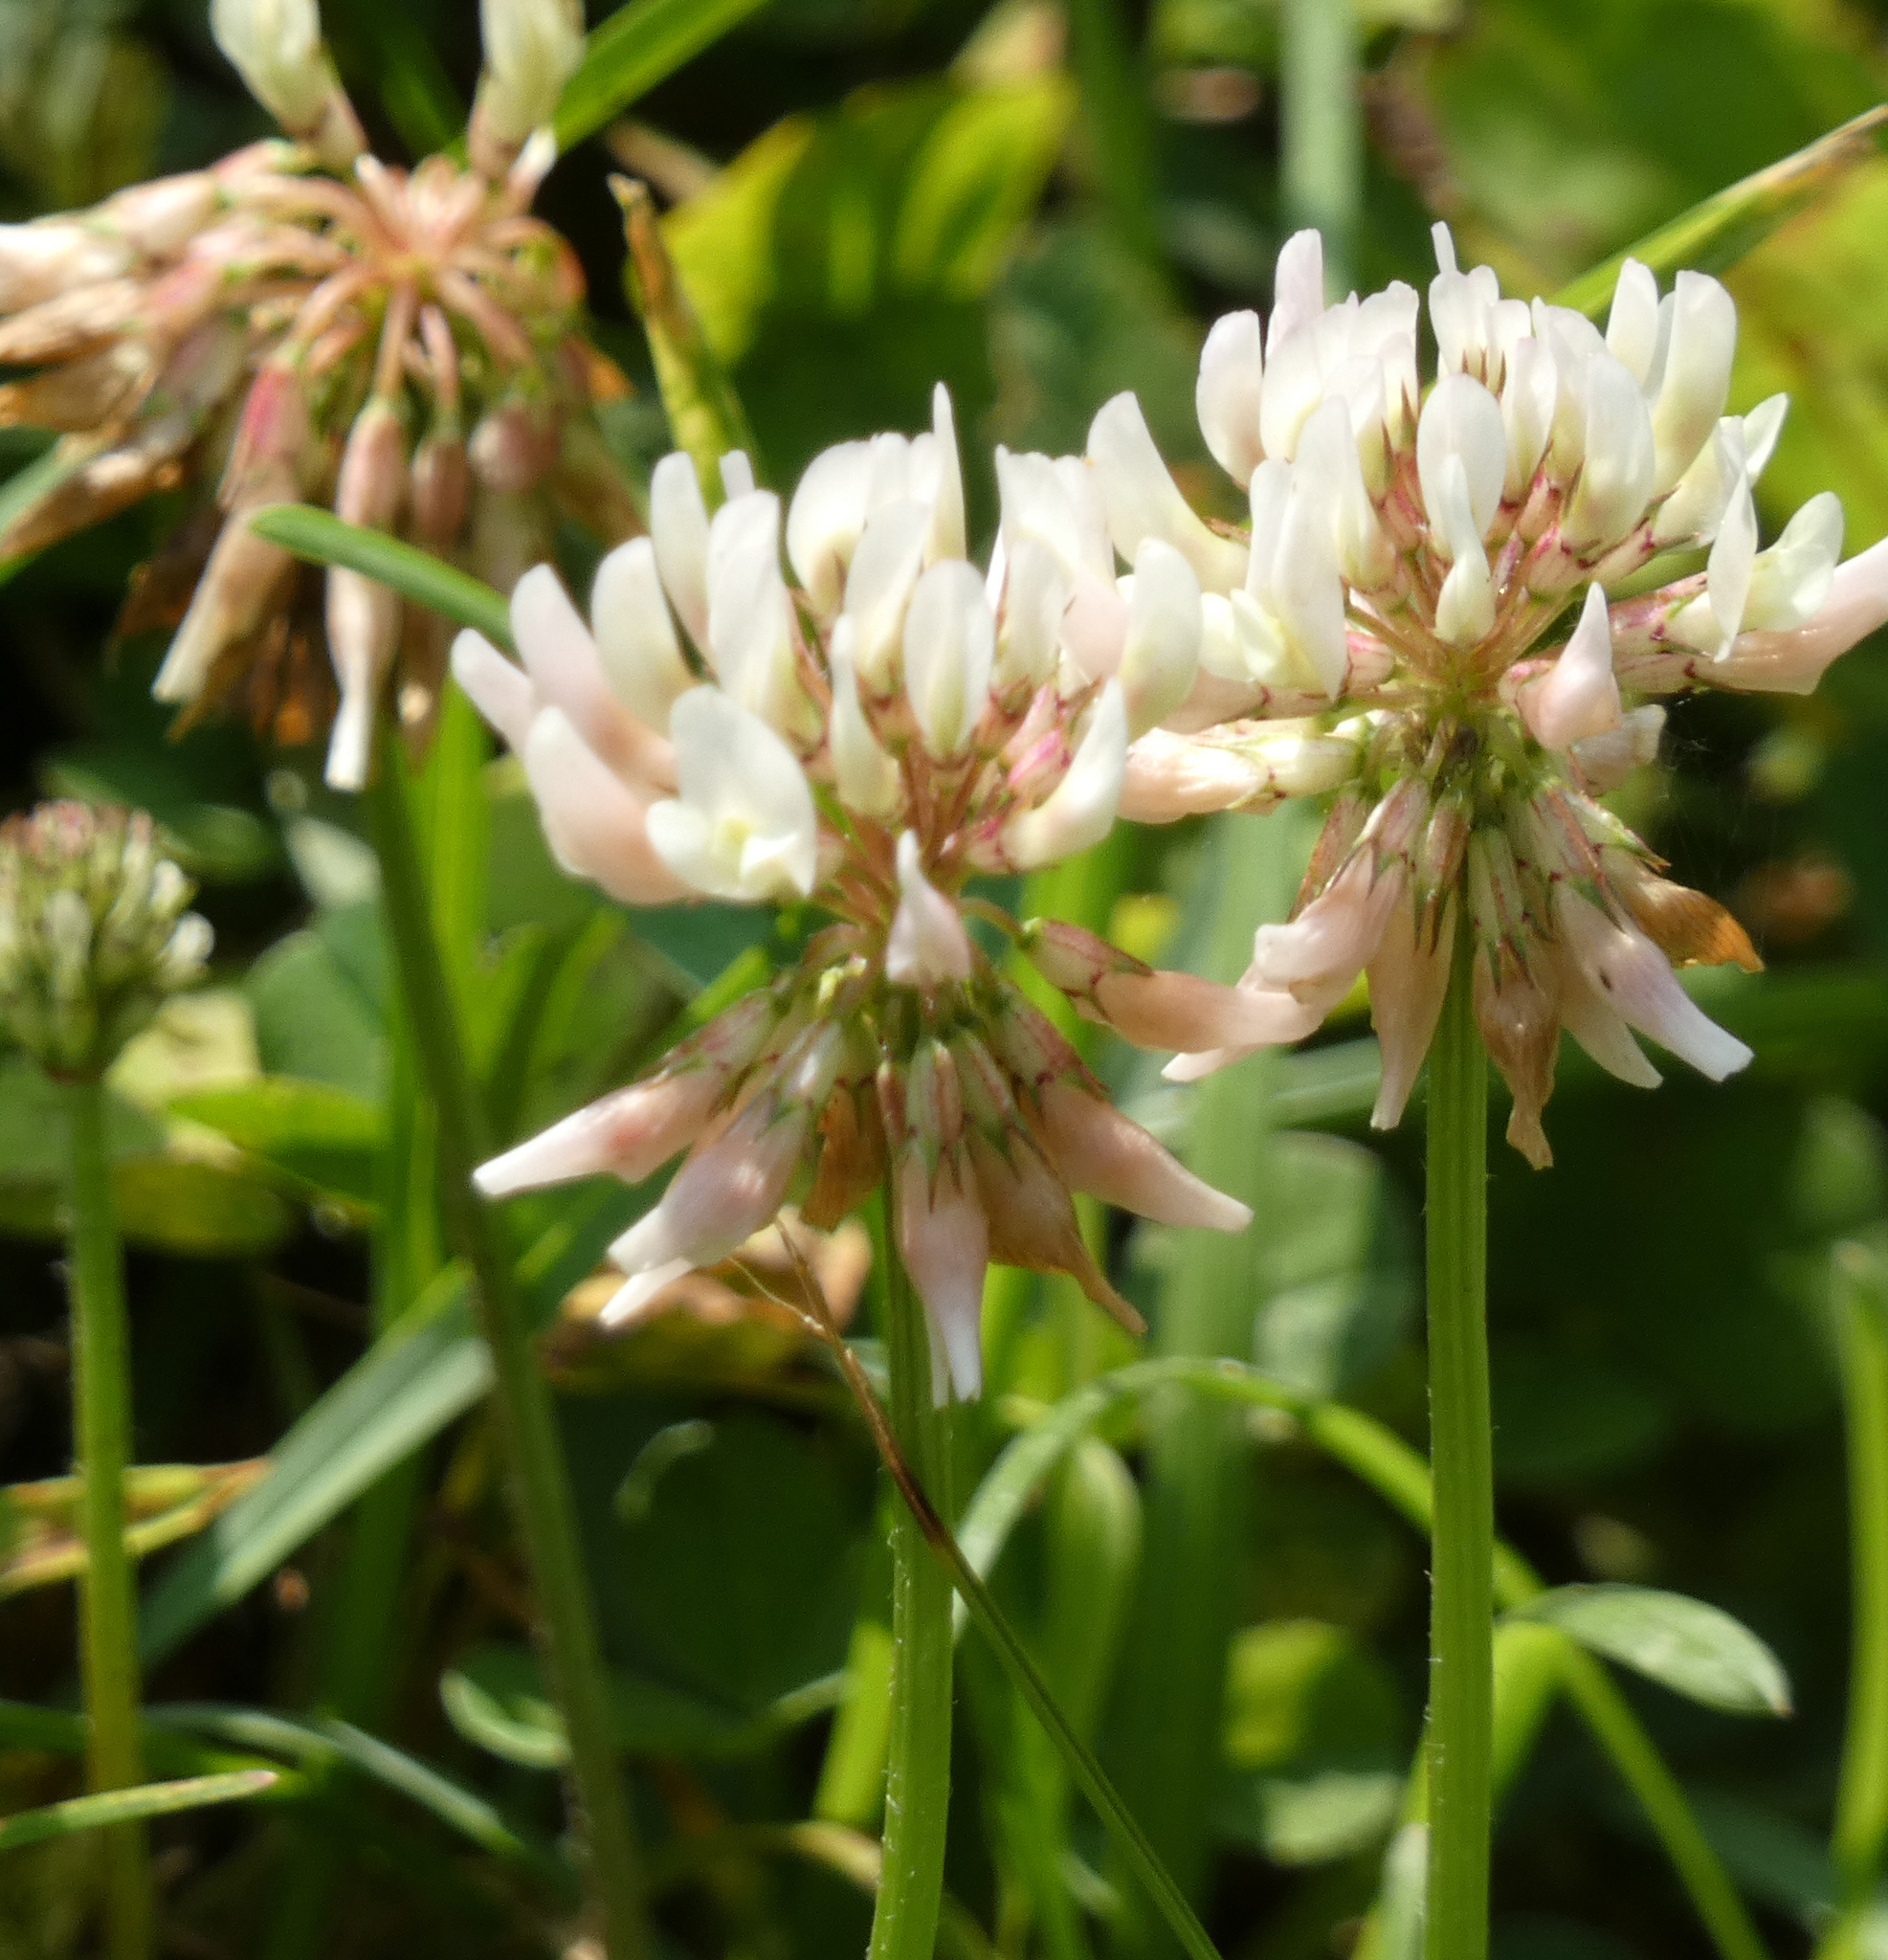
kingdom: Plantae
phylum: Tracheophyta
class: Magnoliopsida
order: Fabales
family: Fabaceae
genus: Trifolium
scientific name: Trifolium repens
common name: White clover
